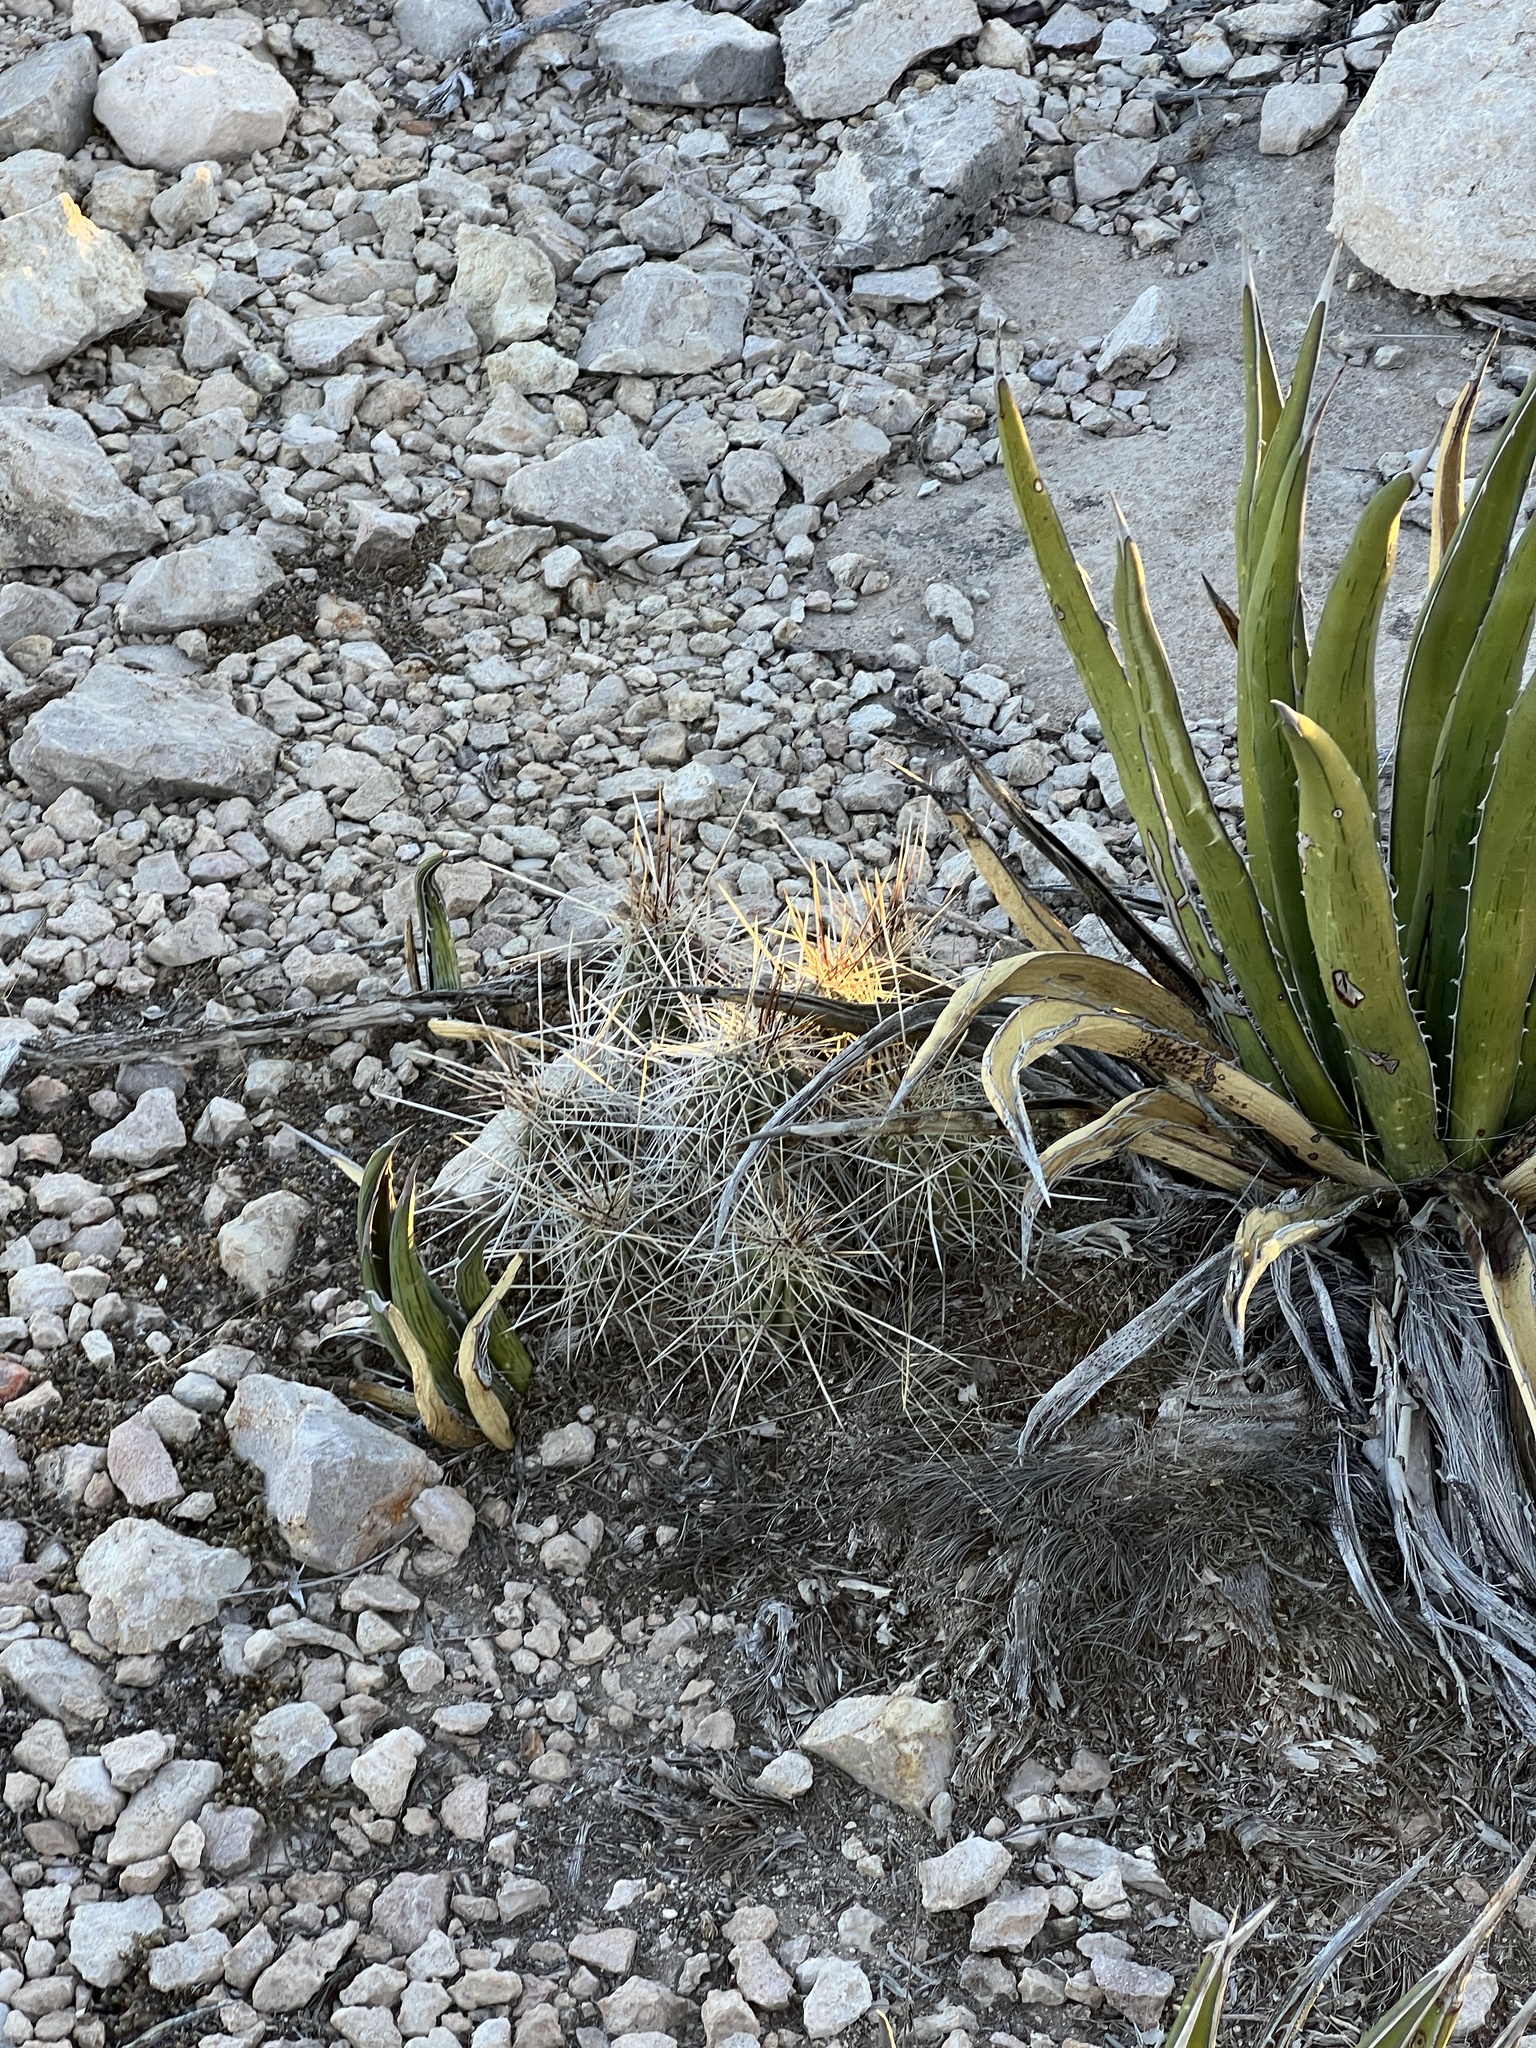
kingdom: Plantae
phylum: Tracheophyta
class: Magnoliopsida
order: Caryophyllales
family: Cactaceae
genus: Echinocereus
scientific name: Echinocereus stramineus
